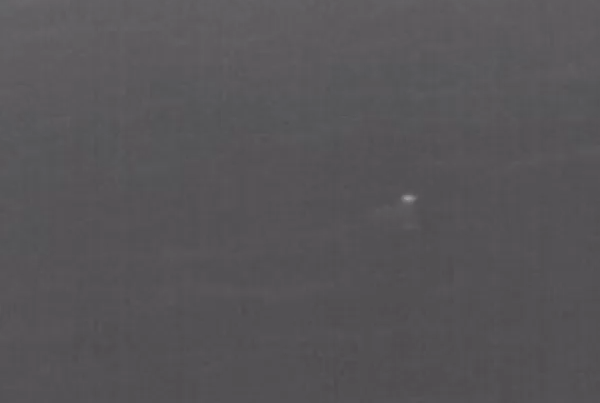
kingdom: Animalia
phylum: Chordata
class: Aves
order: Sphenisciformes
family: Spheniscidae
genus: Eudyptula
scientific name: Eudyptula minor
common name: Little penguin
